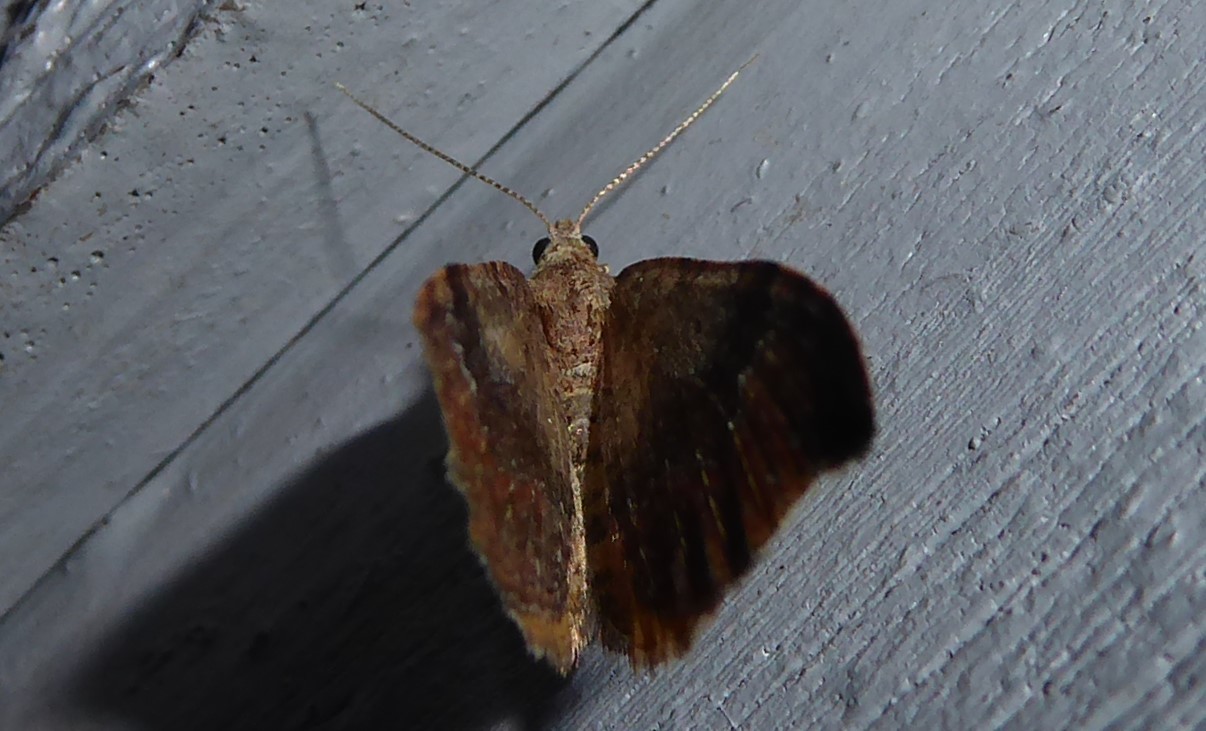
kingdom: Animalia
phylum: Arthropoda
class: Insecta
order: Lepidoptera
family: Geometridae
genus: Homodotis
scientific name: Homodotis megaspilata
